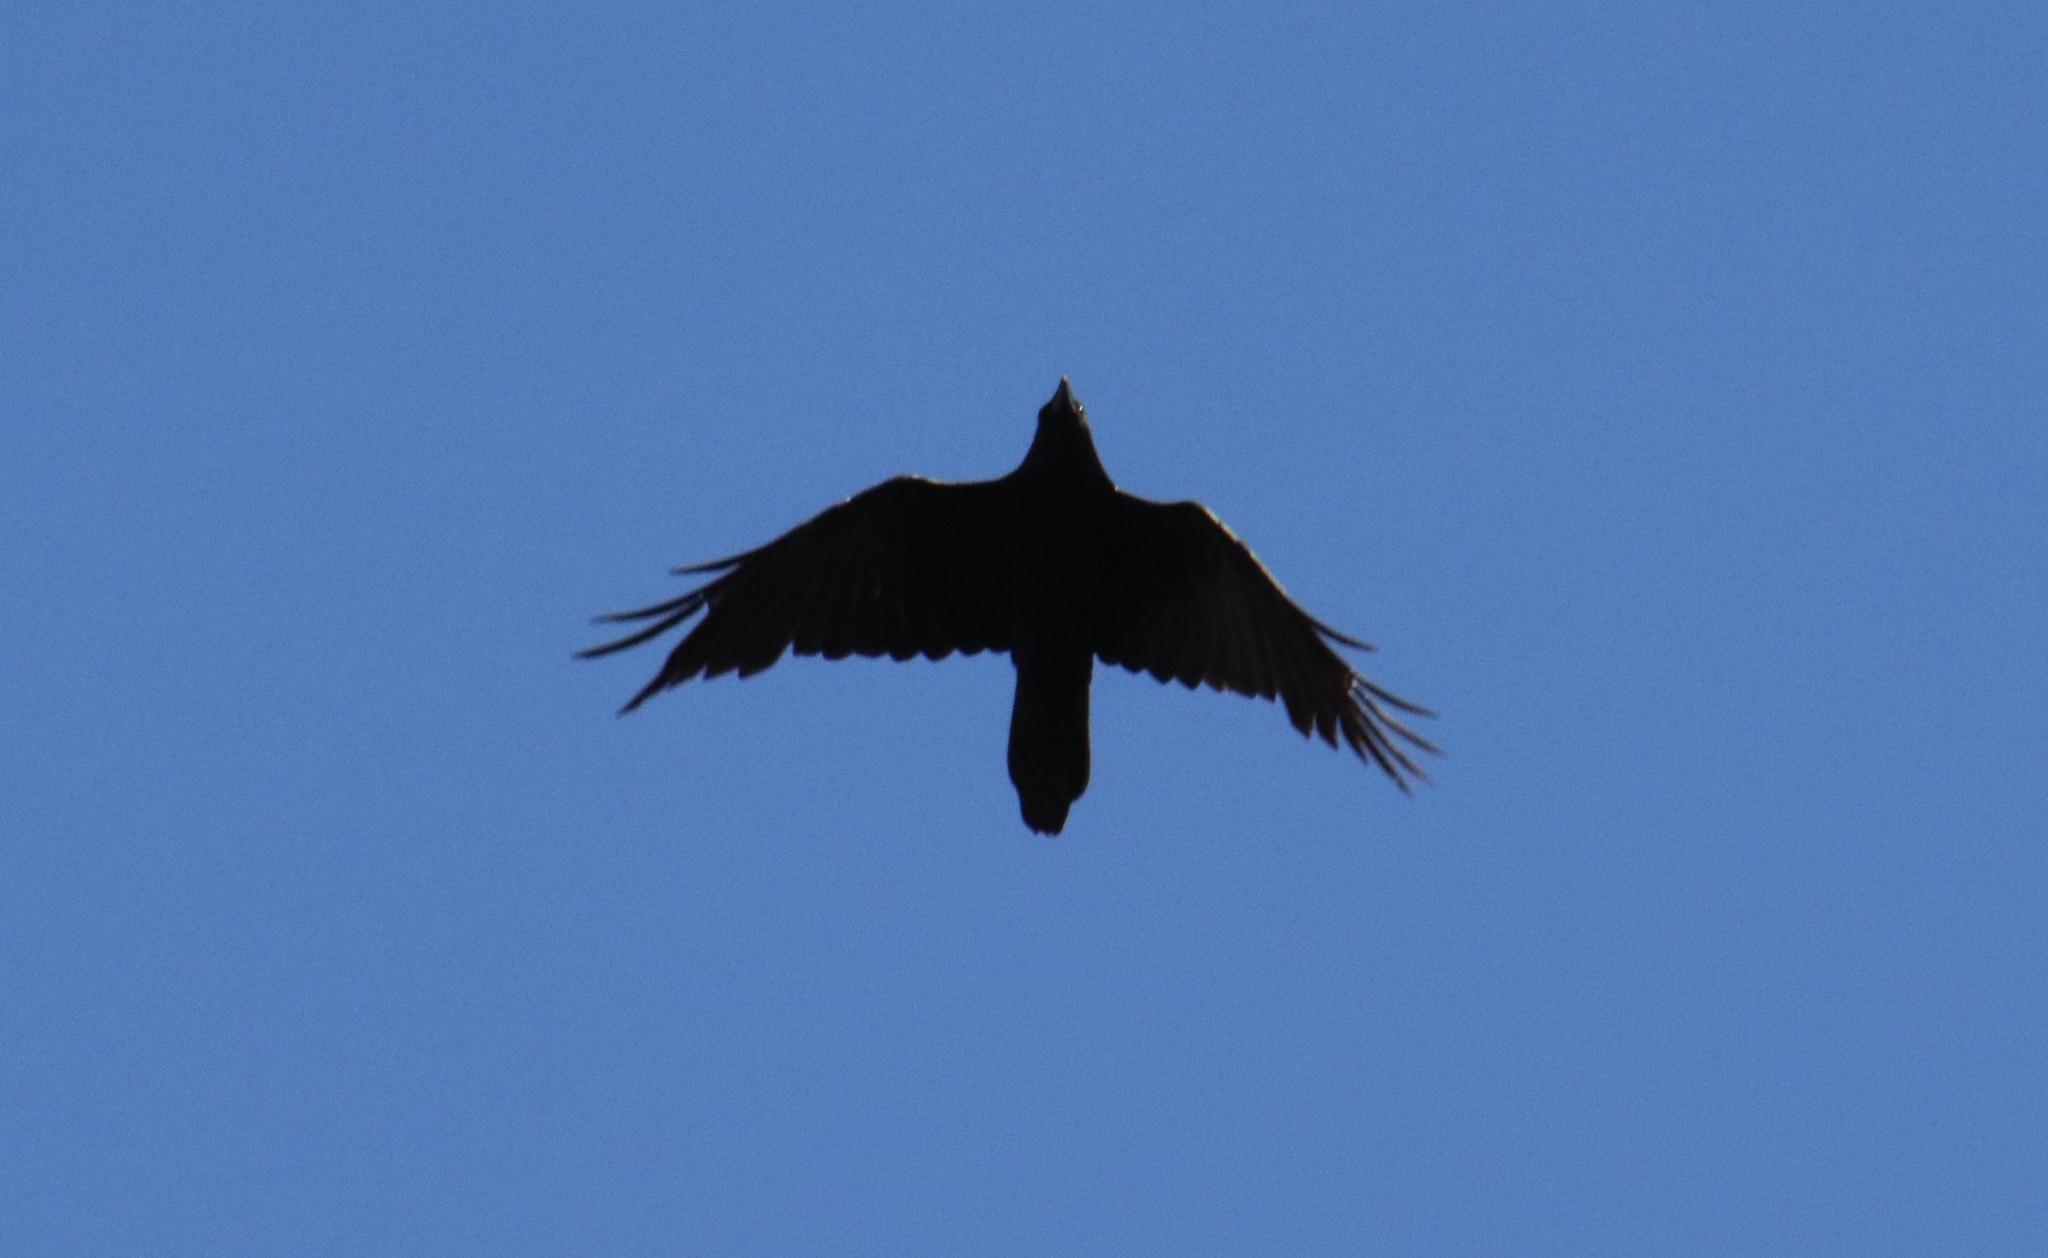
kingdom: Animalia
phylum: Chordata
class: Aves
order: Passeriformes
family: Corvidae
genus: Corvus
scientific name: Corvus corax
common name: Common raven
